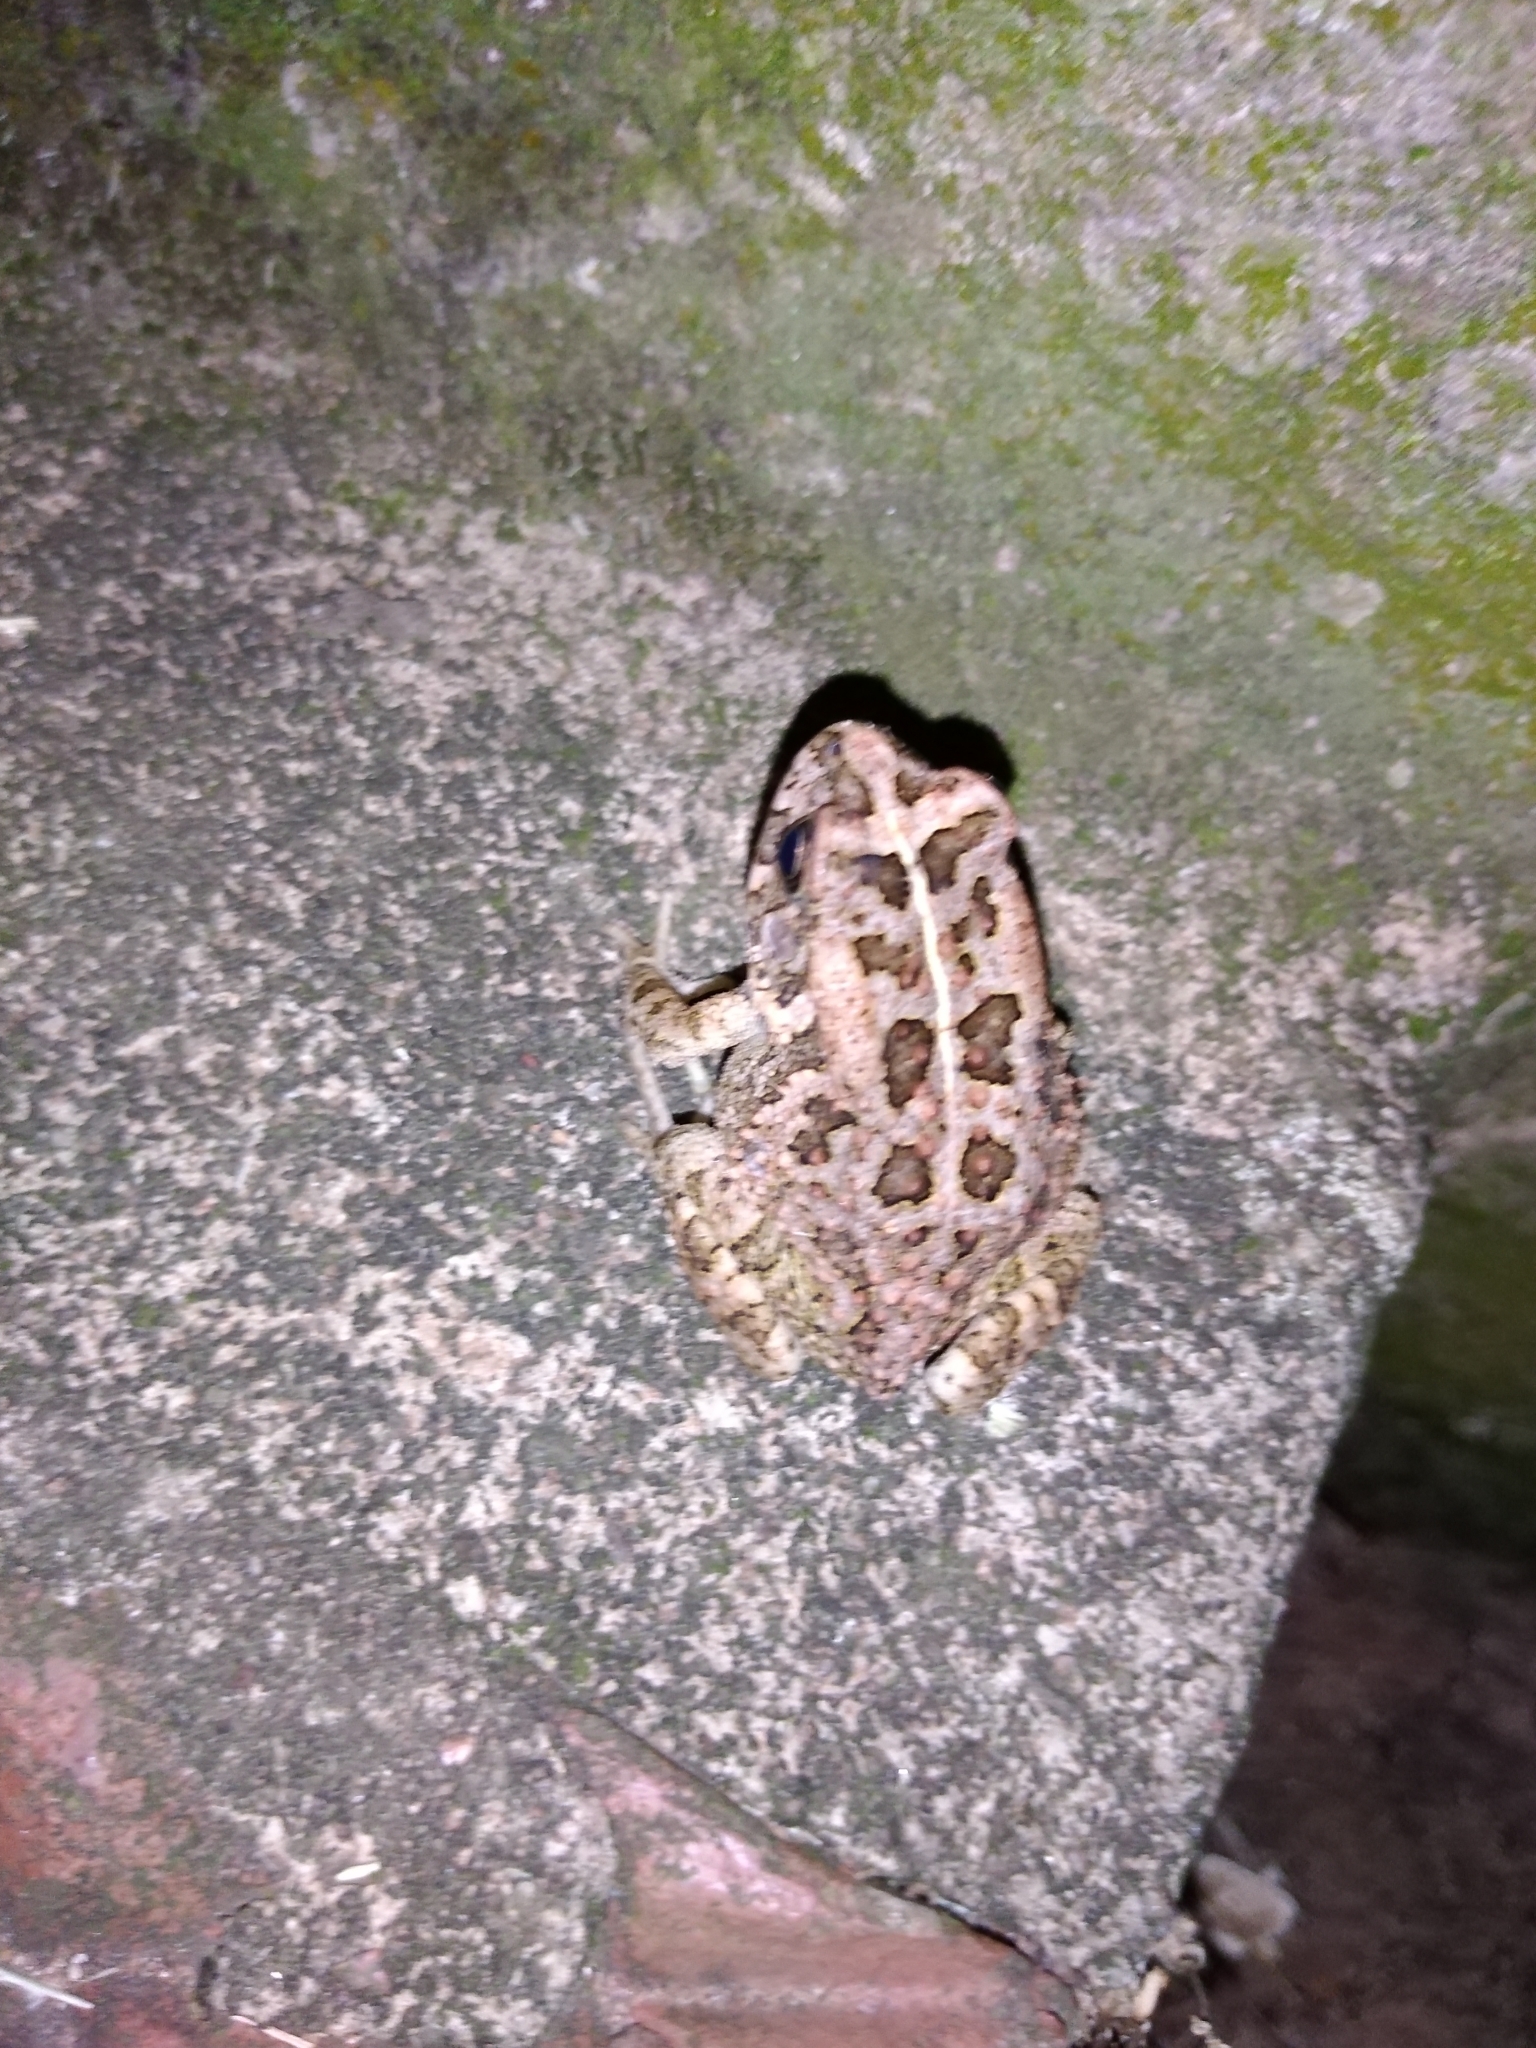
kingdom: Animalia
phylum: Chordata
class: Amphibia
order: Anura
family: Bufonidae
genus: Sclerophrys
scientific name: Sclerophrys gutturalis
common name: African common toad
